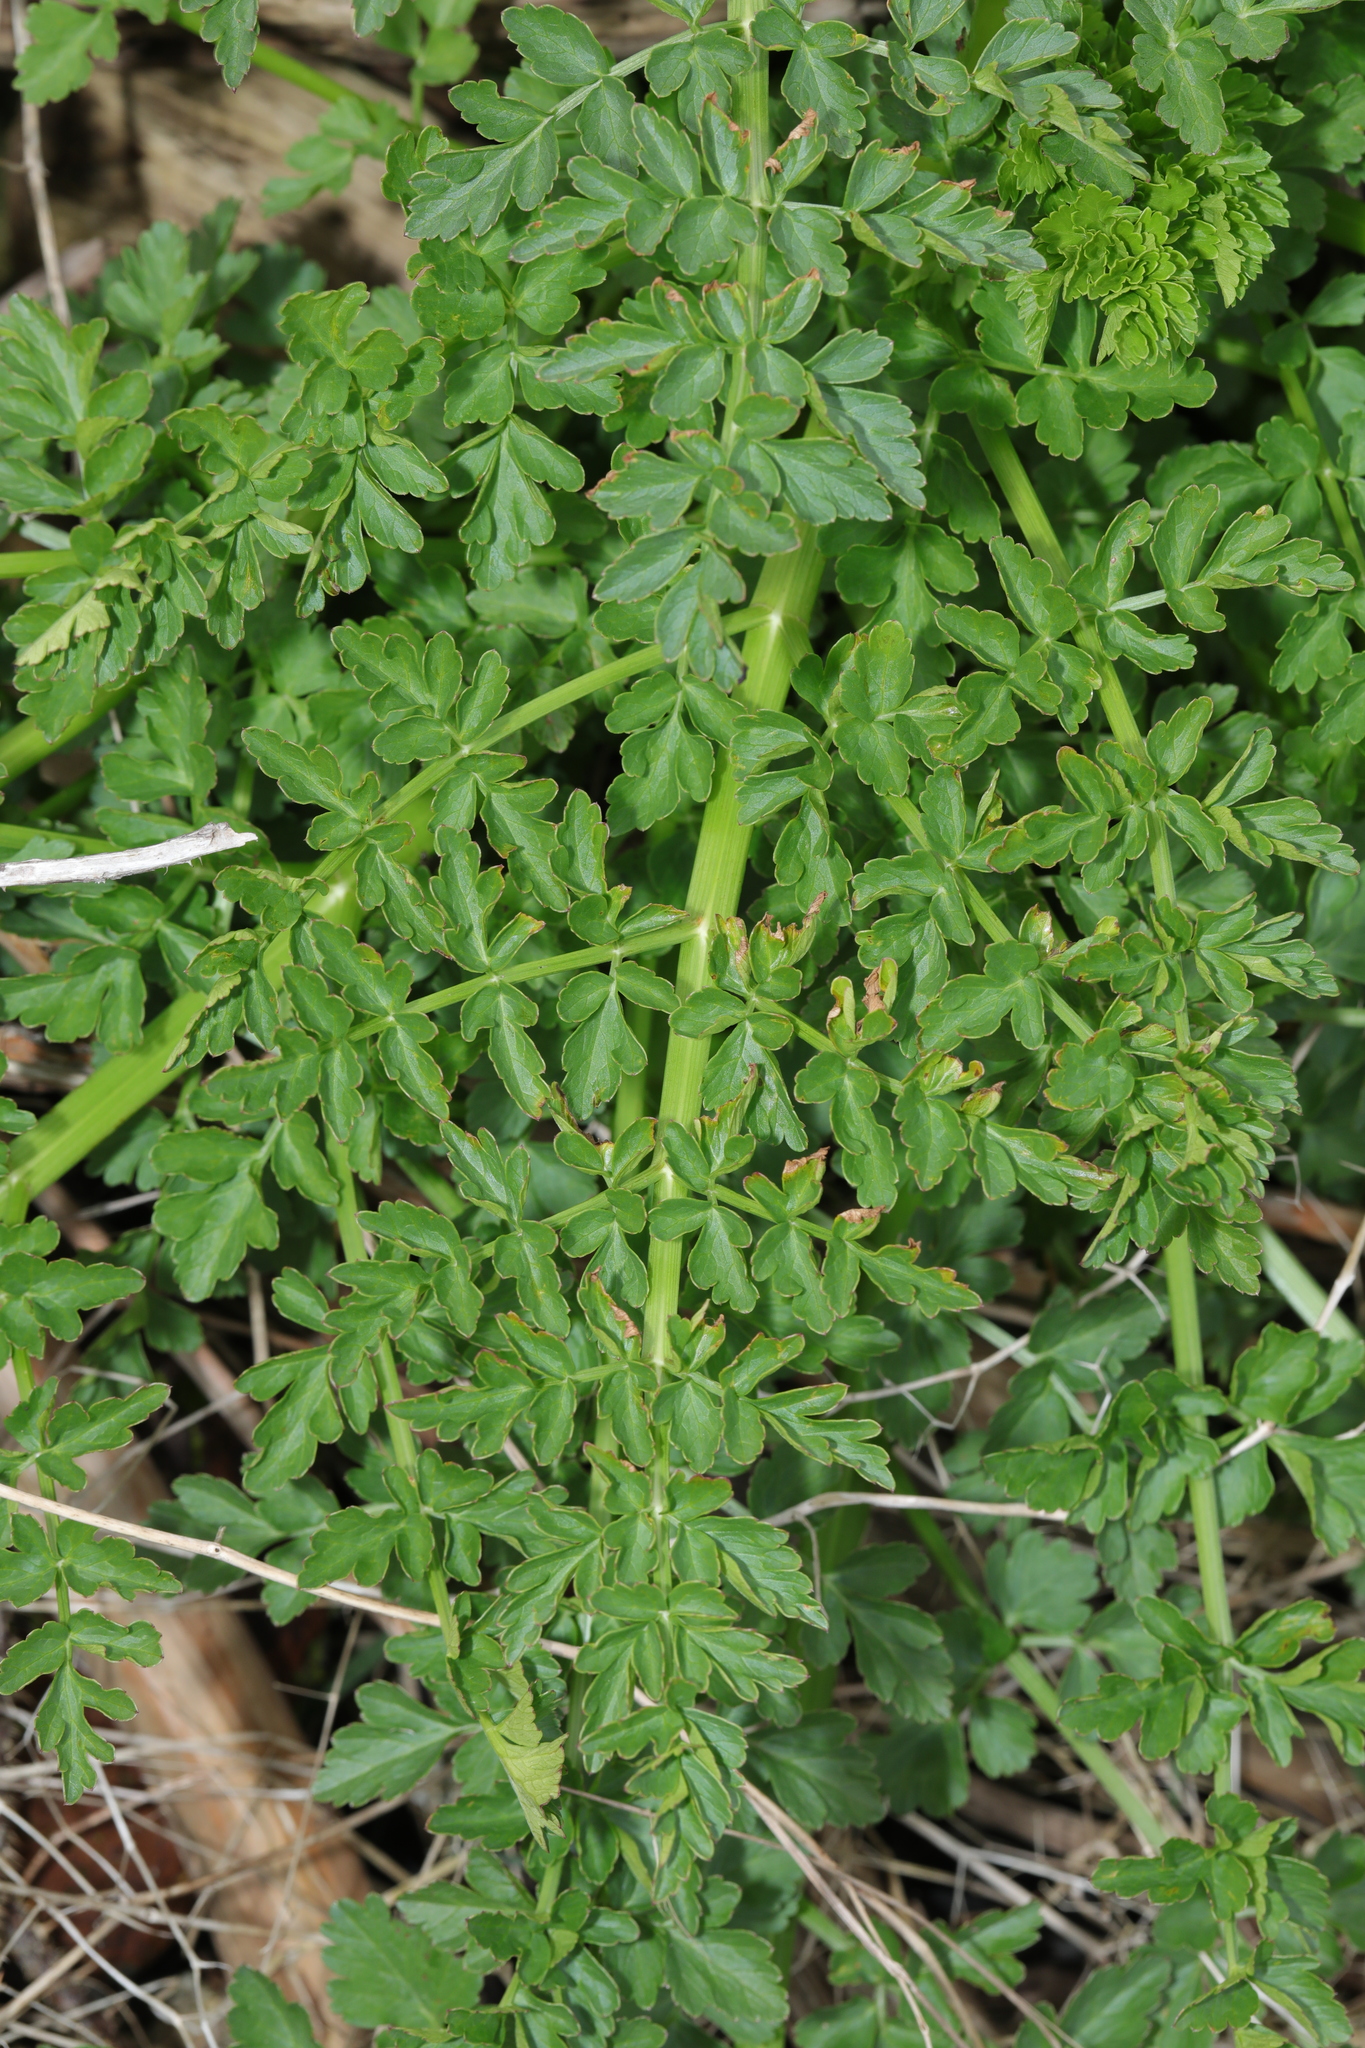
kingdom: Plantae
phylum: Tracheophyta
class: Magnoliopsida
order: Apiales
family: Apiaceae
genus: Oenanthe
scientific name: Oenanthe crocata
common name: Hemlock water-dropwort
